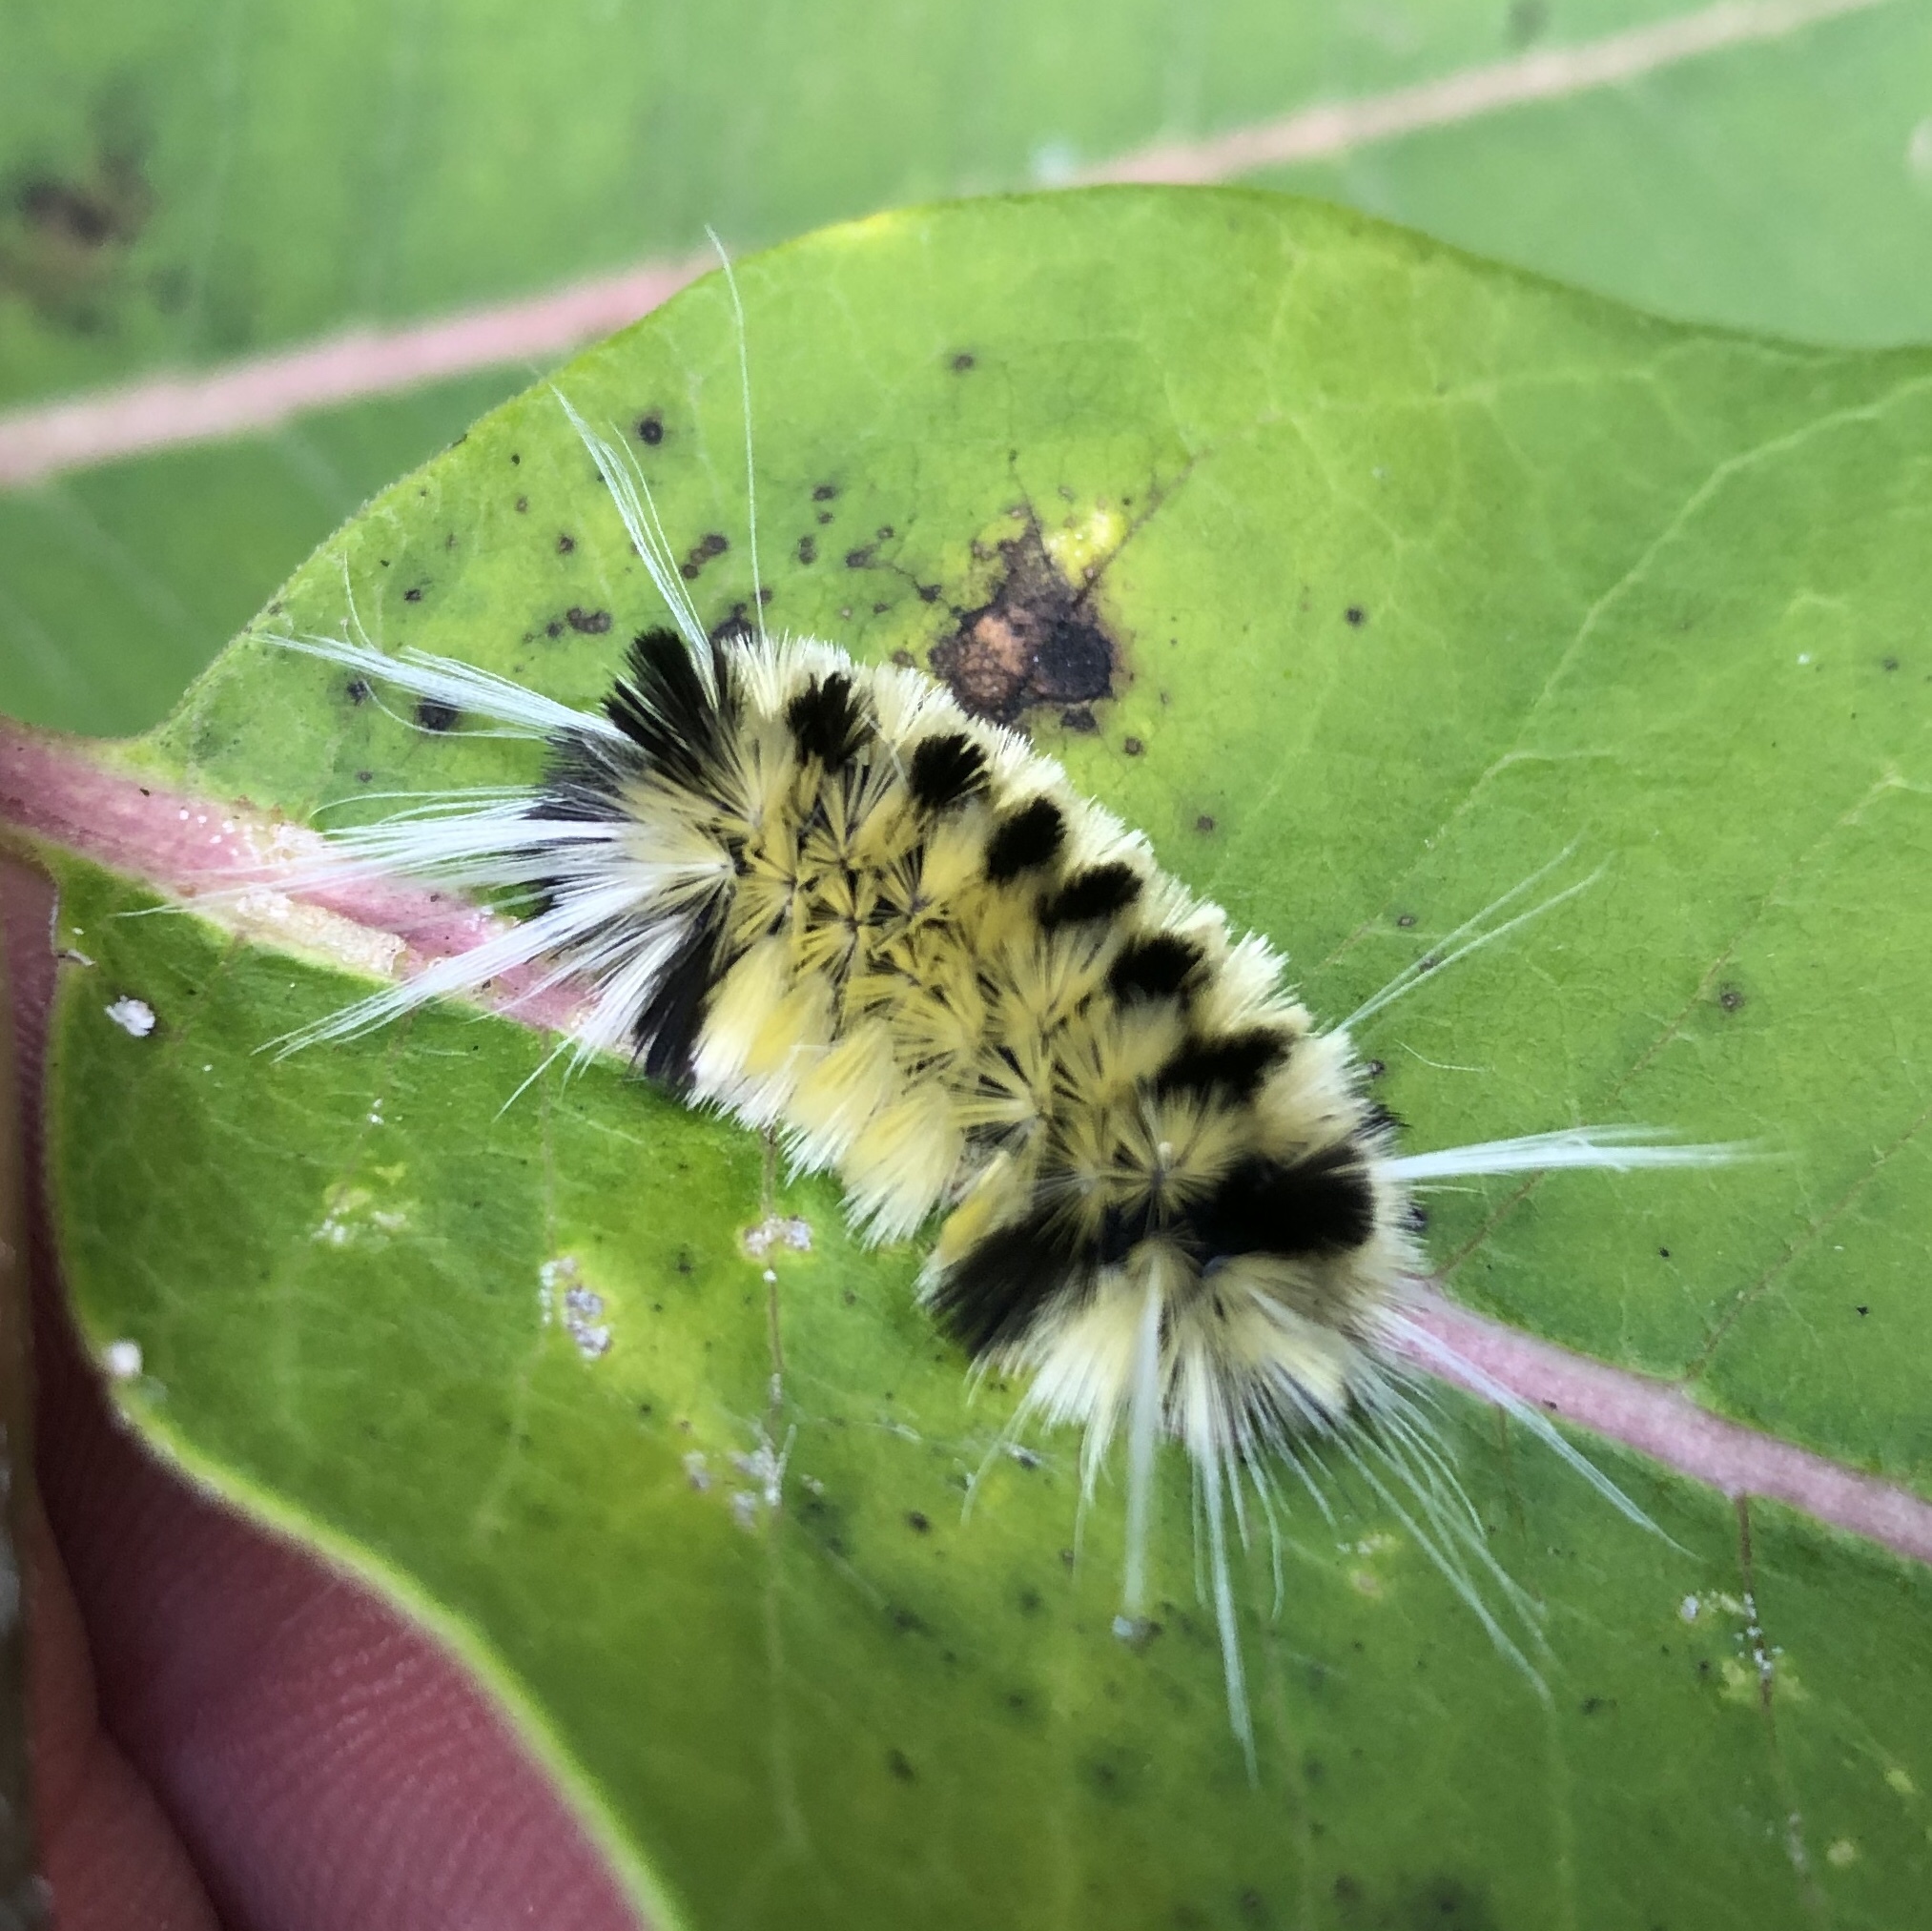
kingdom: Animalia
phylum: Arthropoda
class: Insecta
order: Lepidoptera
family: Erebidae
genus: Lophocampa
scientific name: Lophocampa maculata
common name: Spotted tussock moth
